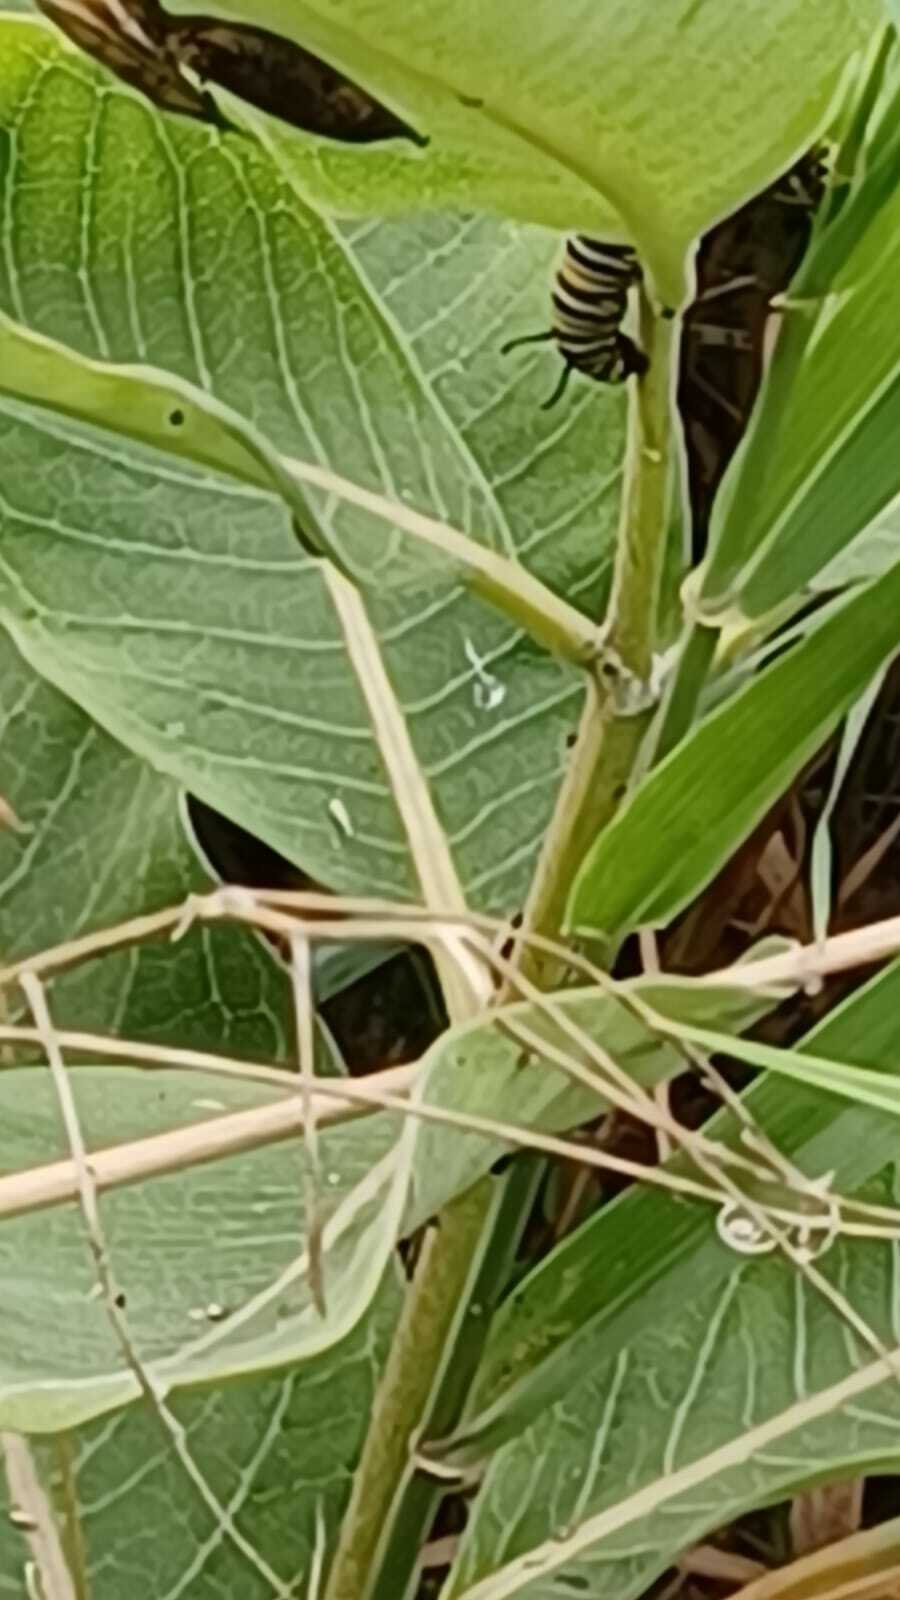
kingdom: Animalia
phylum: Arthropoda
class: Insecta
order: Lepidoptera
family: Nymphalidae
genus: Danaus
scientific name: Danaus plexippus
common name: Monarch
